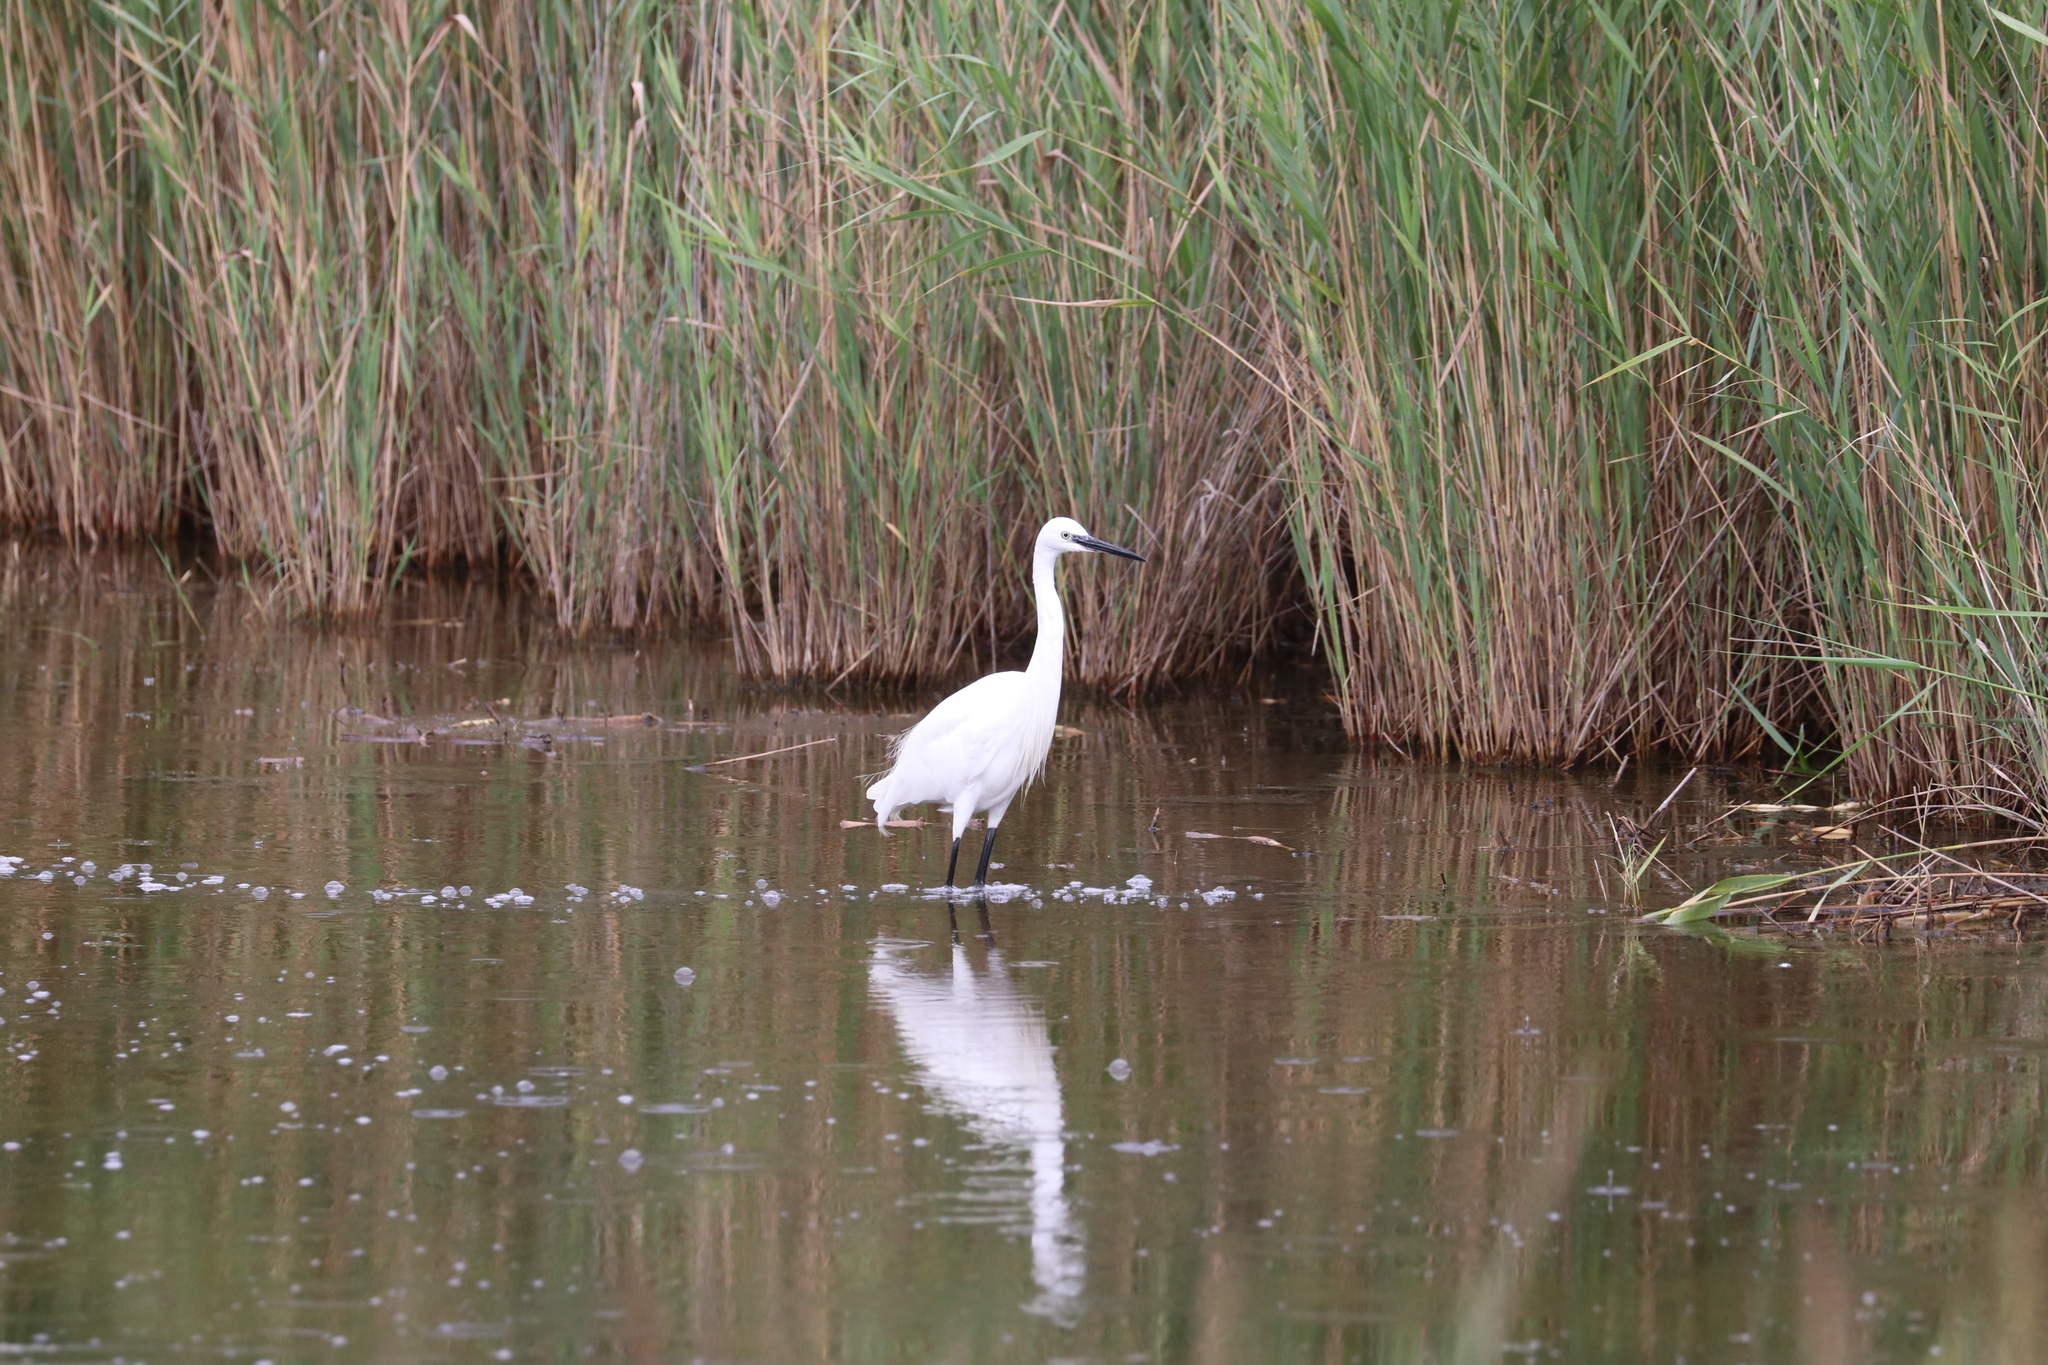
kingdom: Animalia
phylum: Chordata
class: Aves
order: Pelecaniformes
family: Ardeidae
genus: Egretta
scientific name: Egretta garzetta
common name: Little egret
